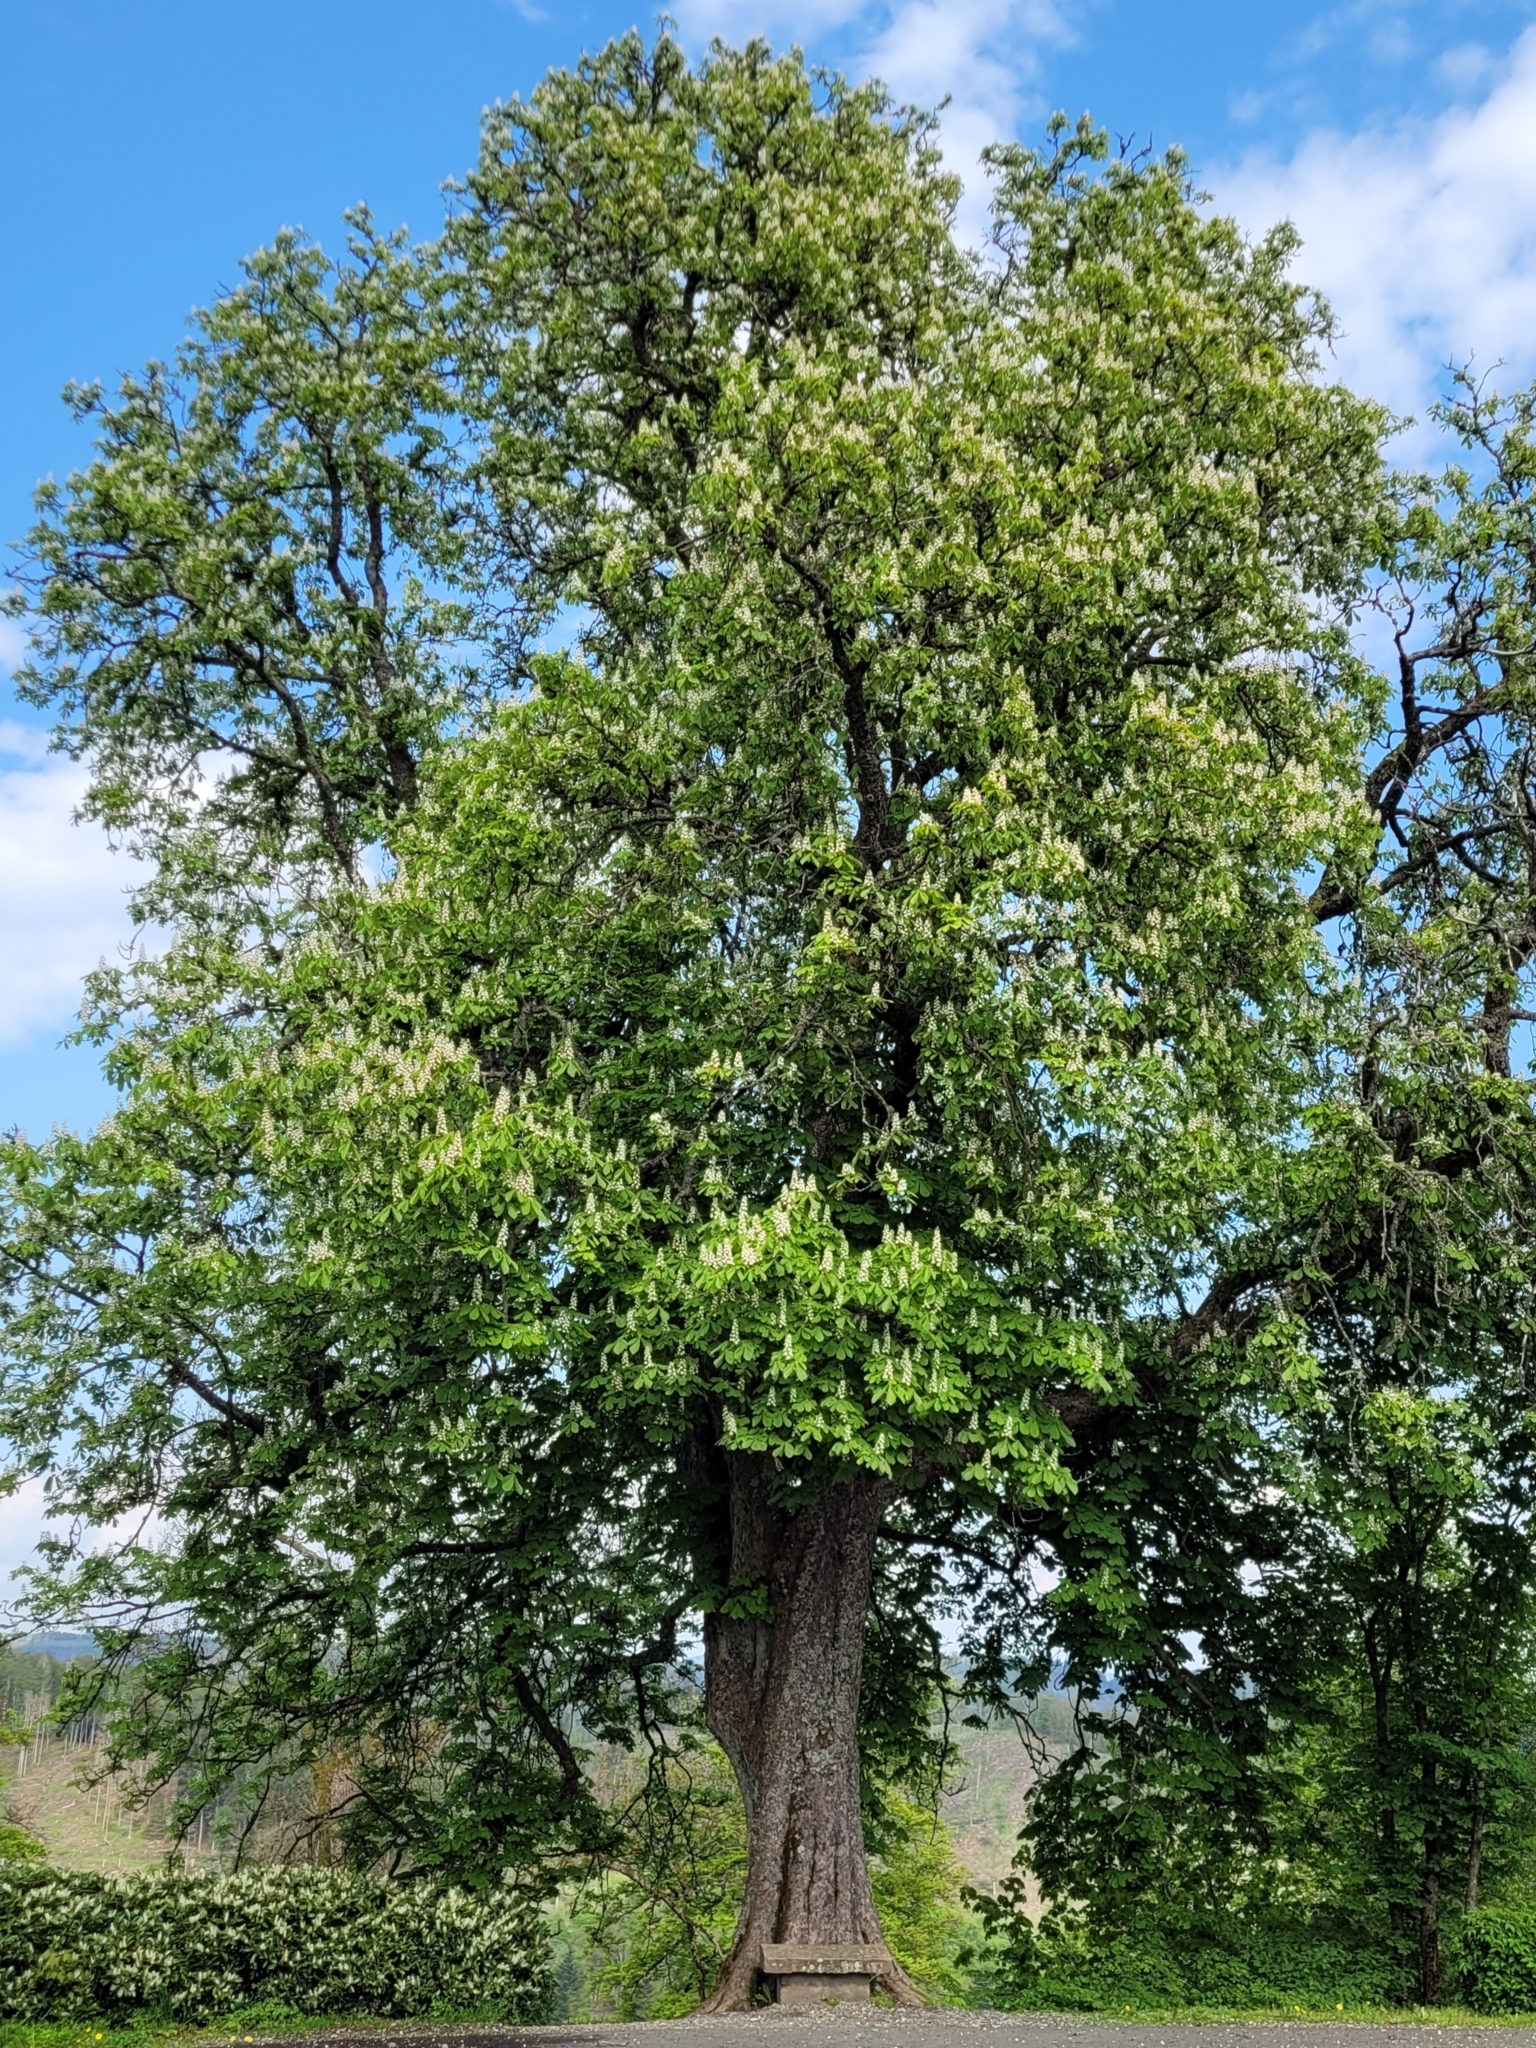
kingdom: Plantae
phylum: Tracheophyta
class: Magnoliopsida
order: Sapindales
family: Sapindaceae
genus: Aesculus
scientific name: Aesculus hippocastanum
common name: Horse-chestnut
